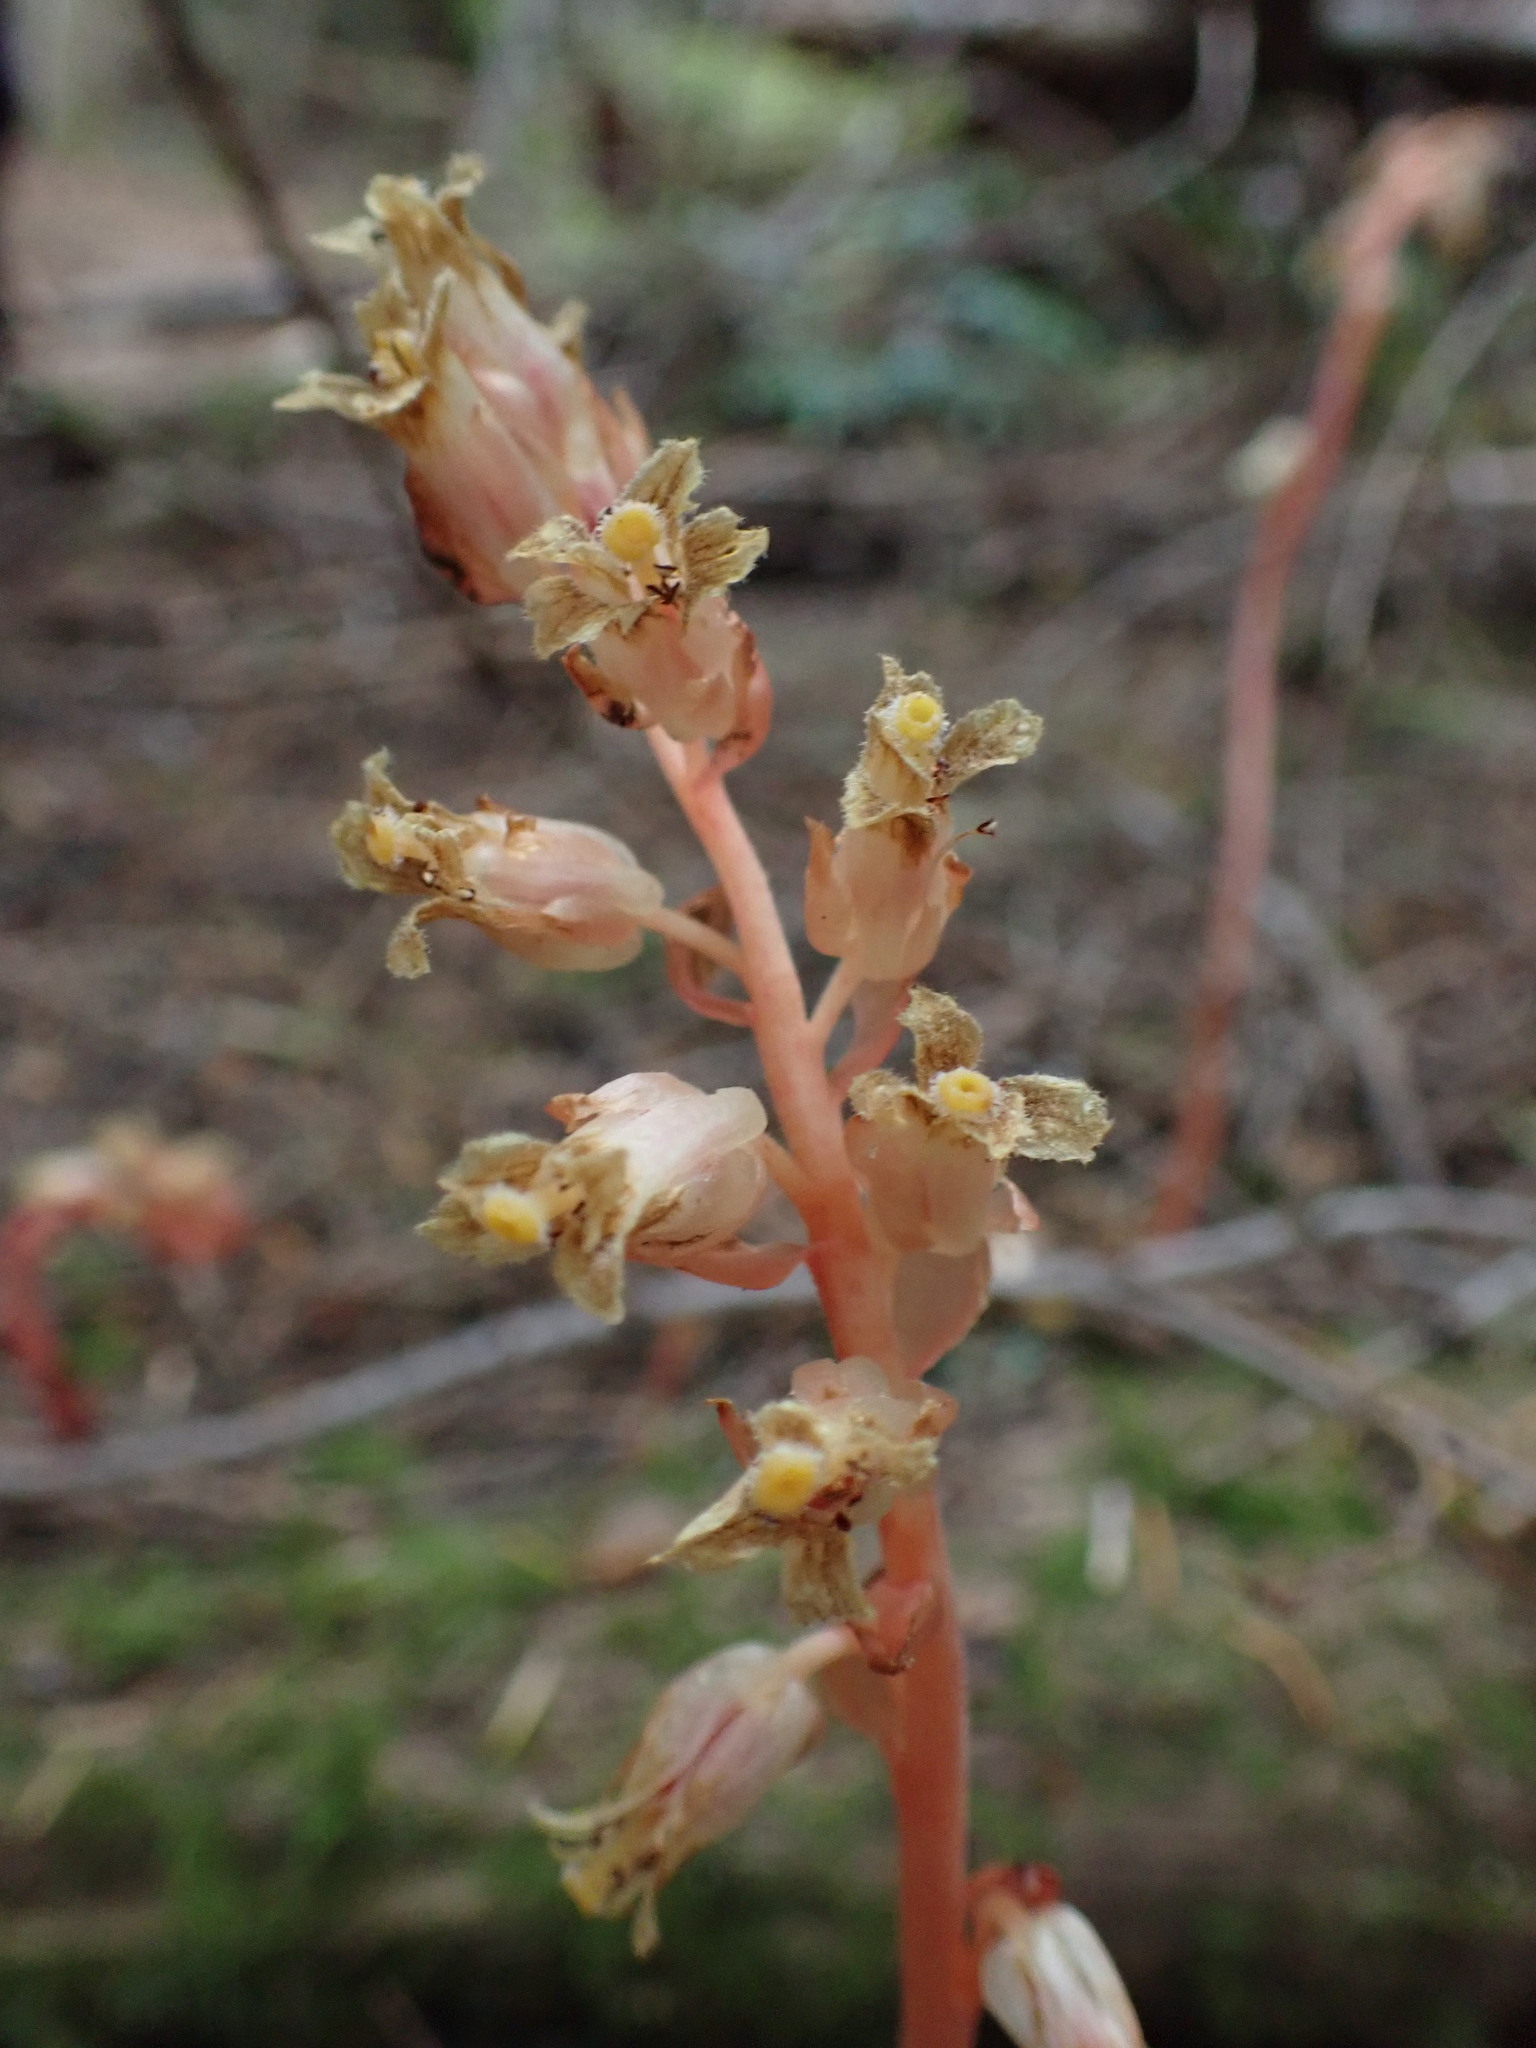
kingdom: Plantae
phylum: Tracheophyta
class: Magnoliopsida
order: Ericales
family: Ericaceae
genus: Hypopitys
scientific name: Hypopitys monotropa
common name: Yellow bird's-nest
